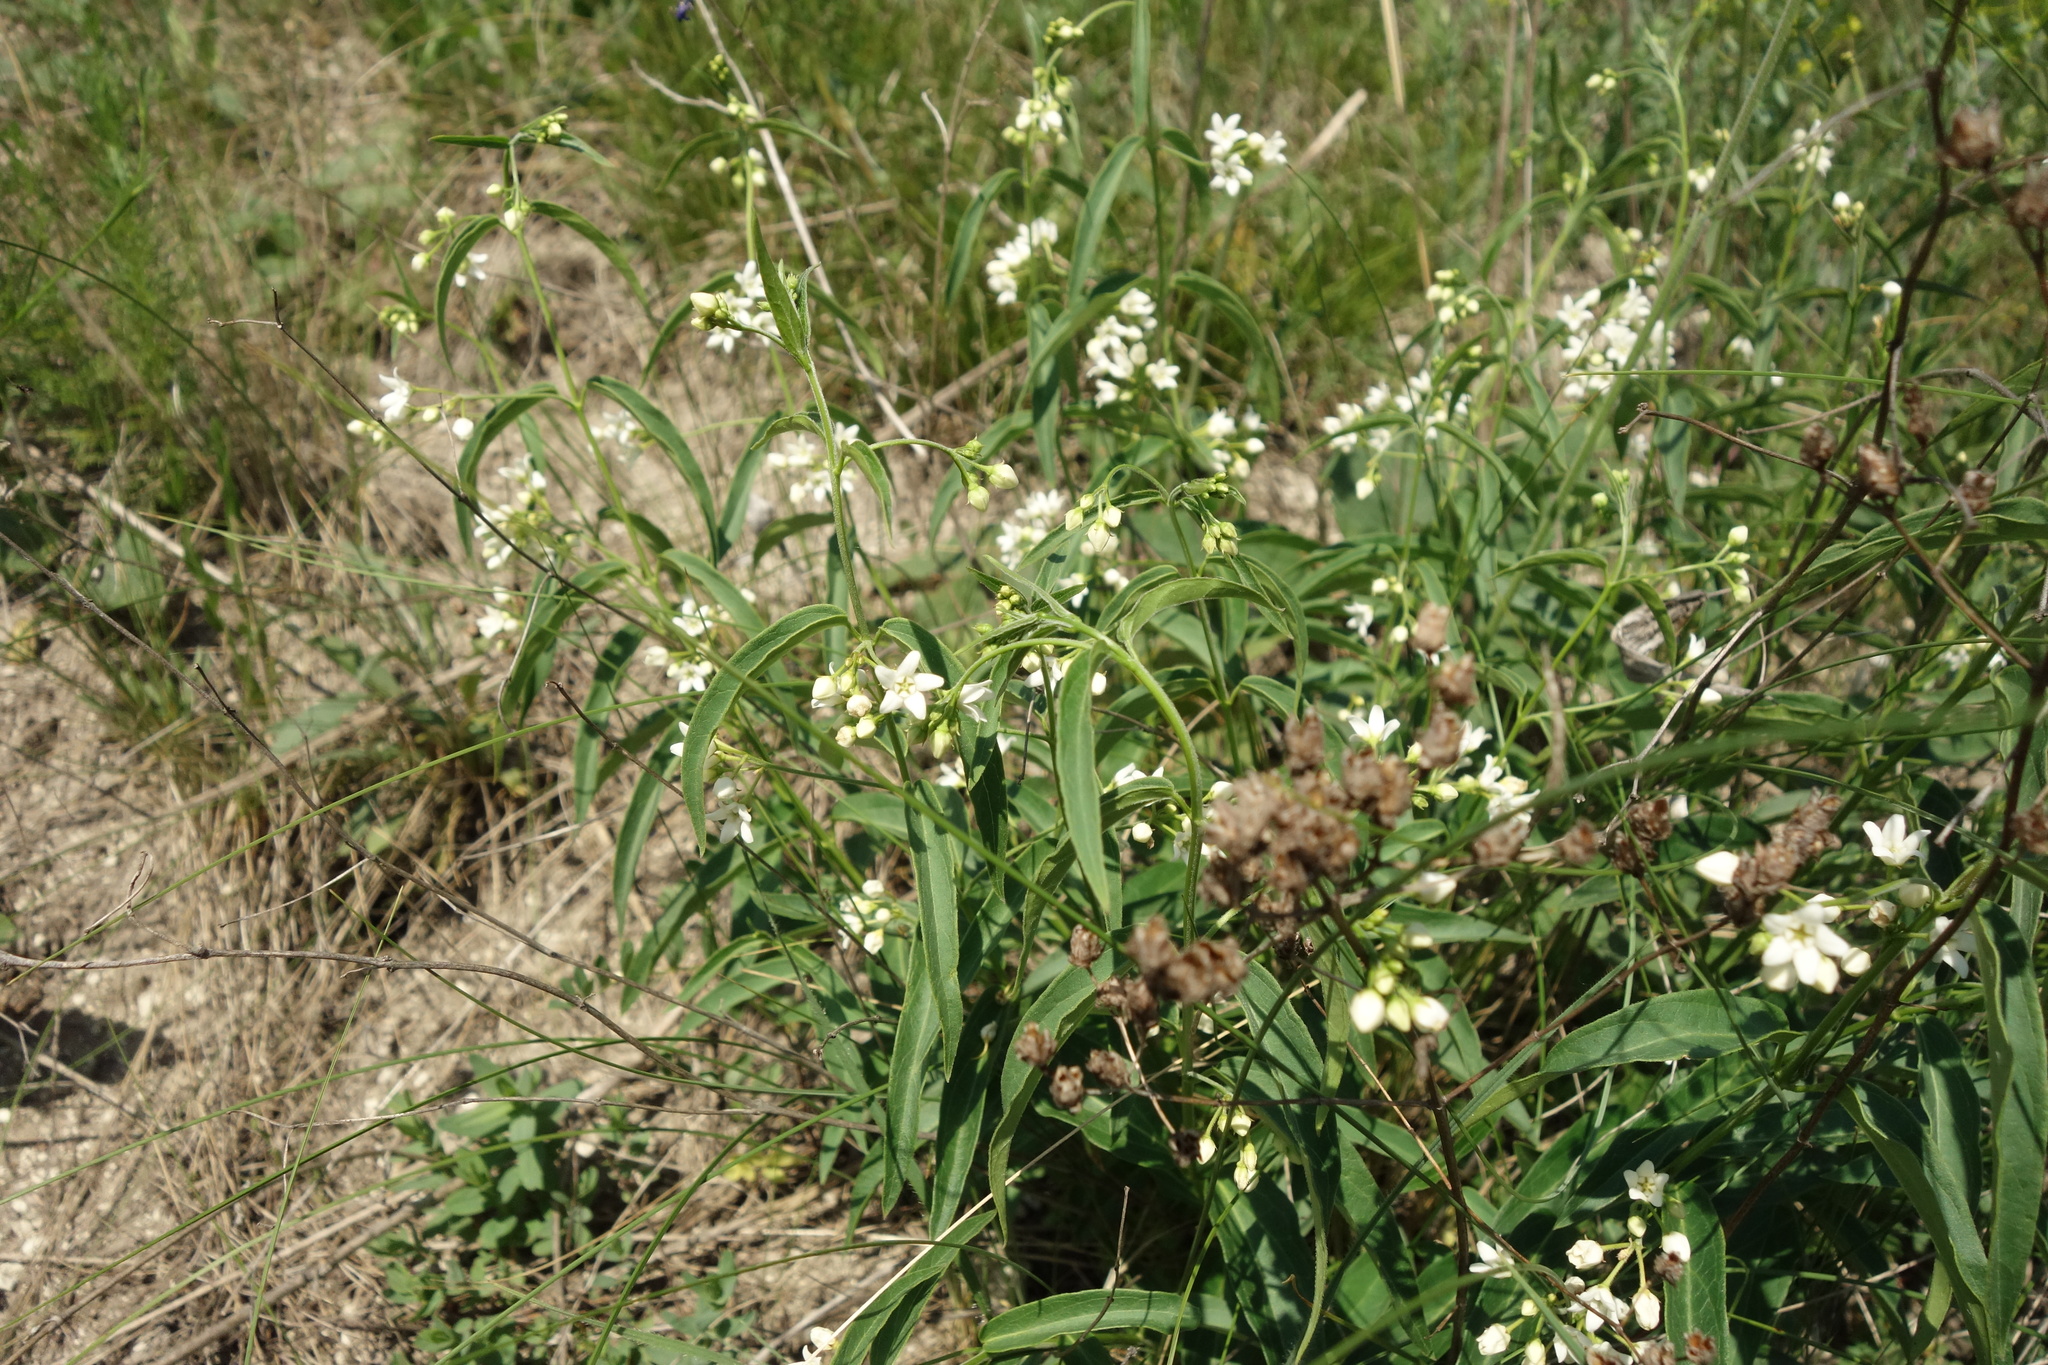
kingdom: Plantae
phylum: Tracheophyta
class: Magnoliopsida
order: Gentianales
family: Apocynaceae
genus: Vincetoxicum
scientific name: Vincetoxicum hirundinaria
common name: White swallowwort
